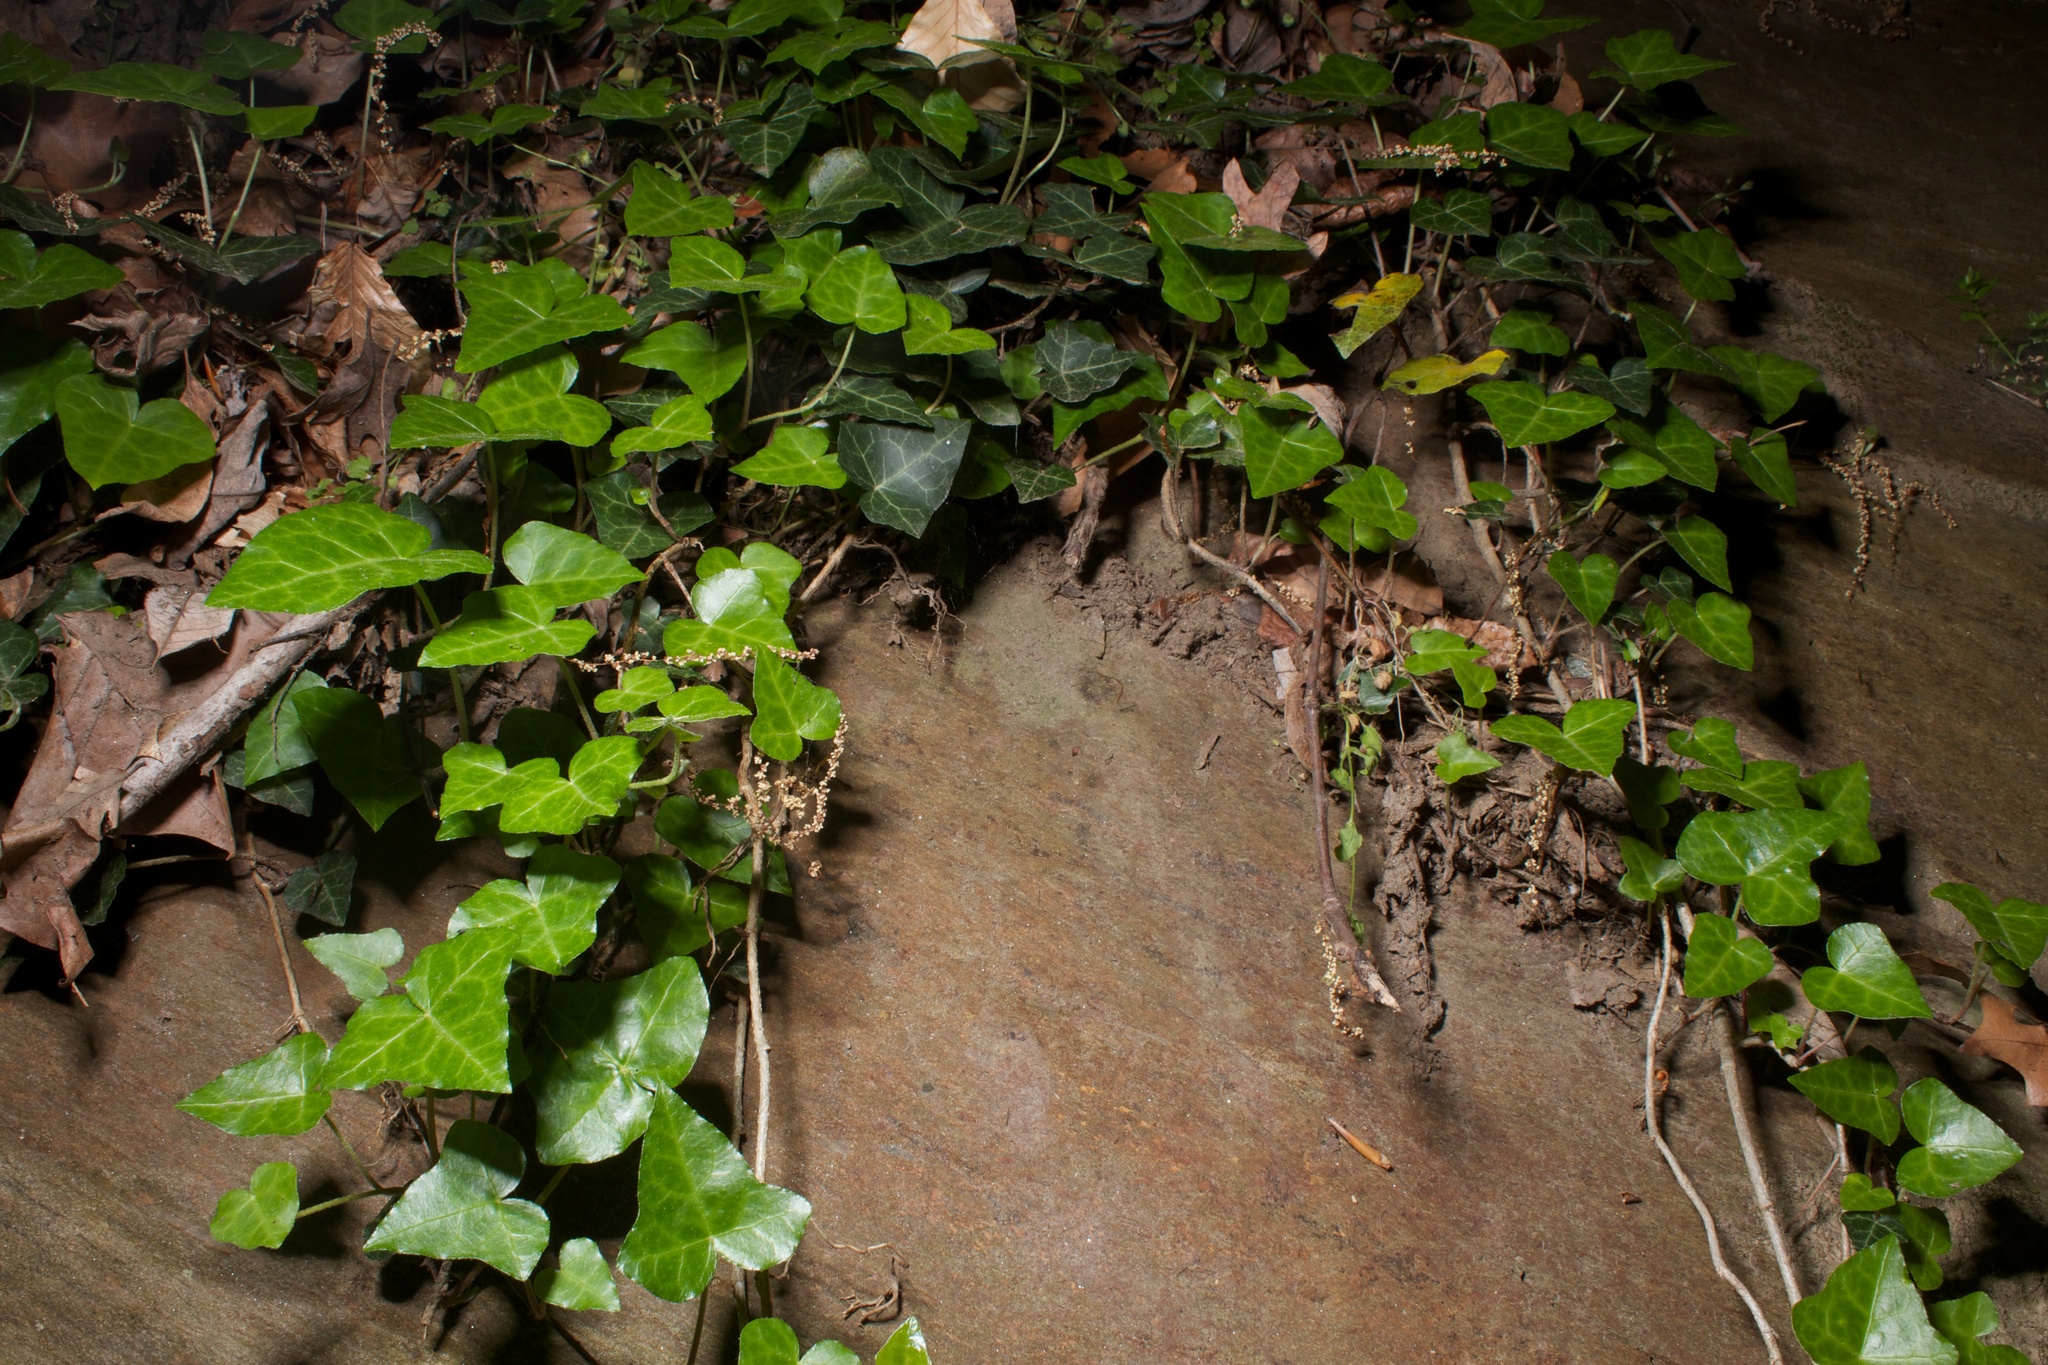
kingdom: Plantae
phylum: Tracheophyta
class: Magnoliopsida
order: Apiales
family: Araliaceae
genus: Hedera
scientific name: Hedera helix
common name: Ivy
